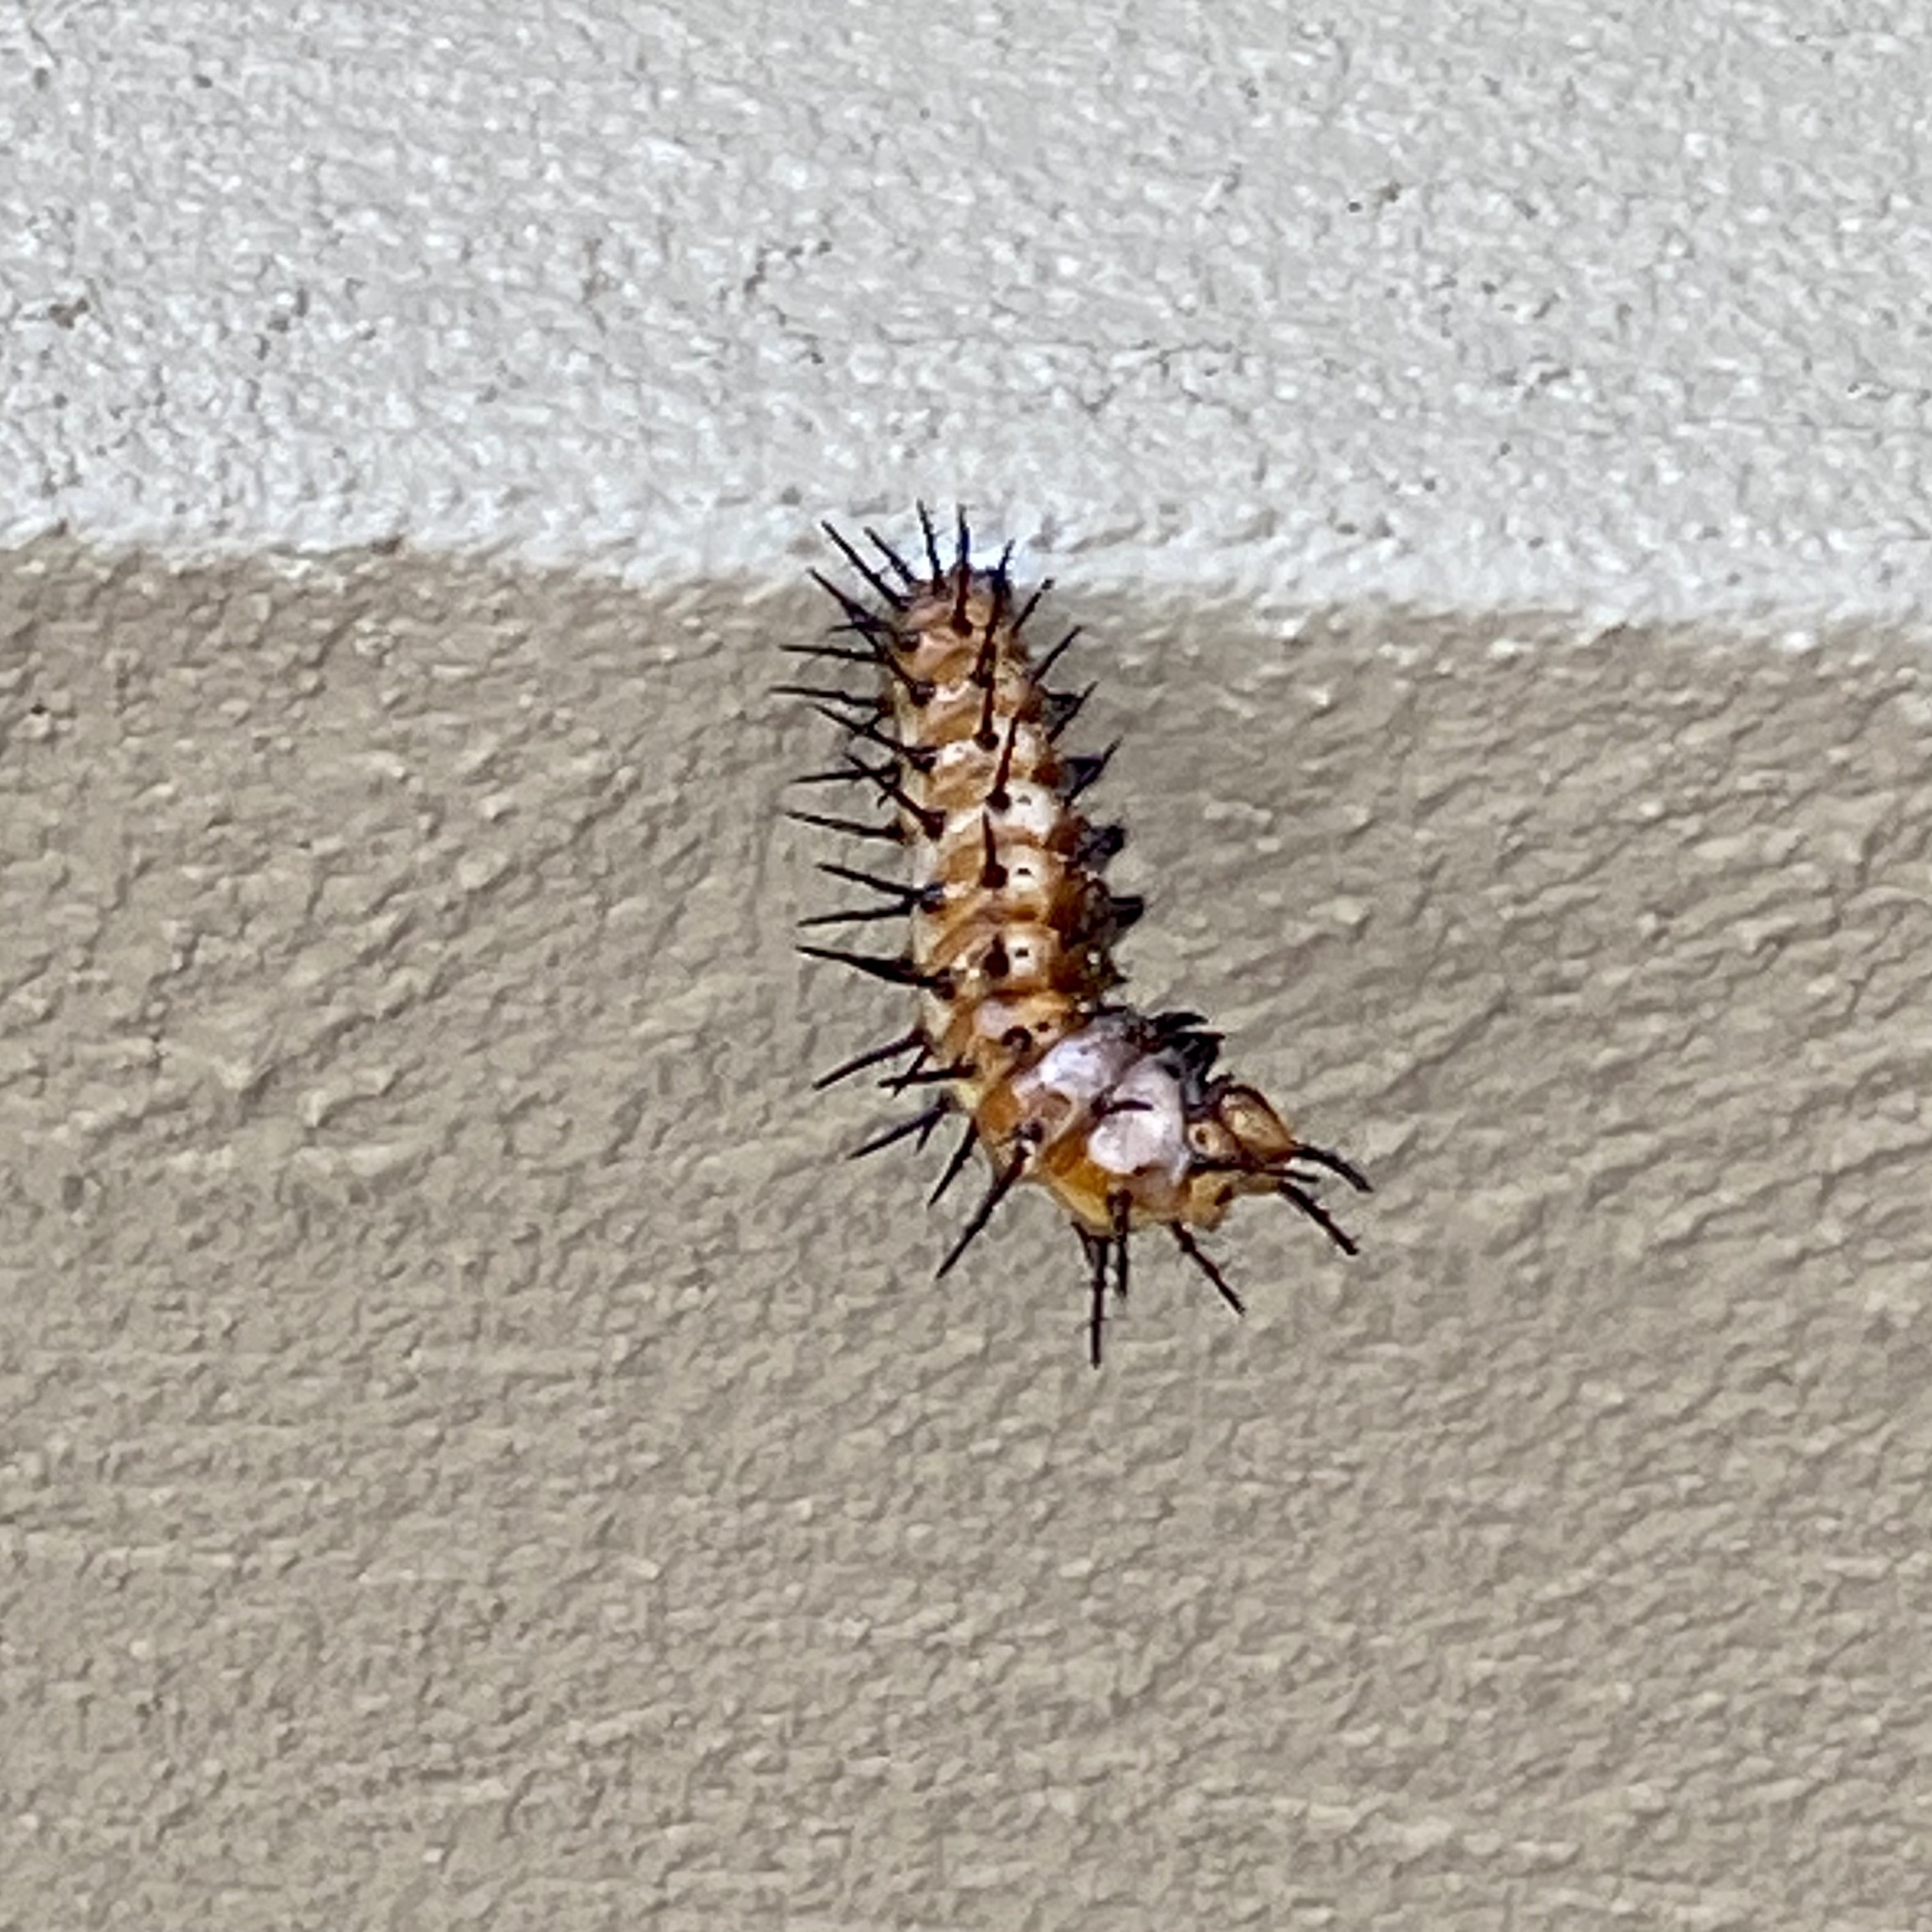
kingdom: Animalia
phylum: Arthropoda
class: Insecta
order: Lepidoptera
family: Nymphalidae
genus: Dione
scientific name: Dione vanillae
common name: Gulf fritillary
